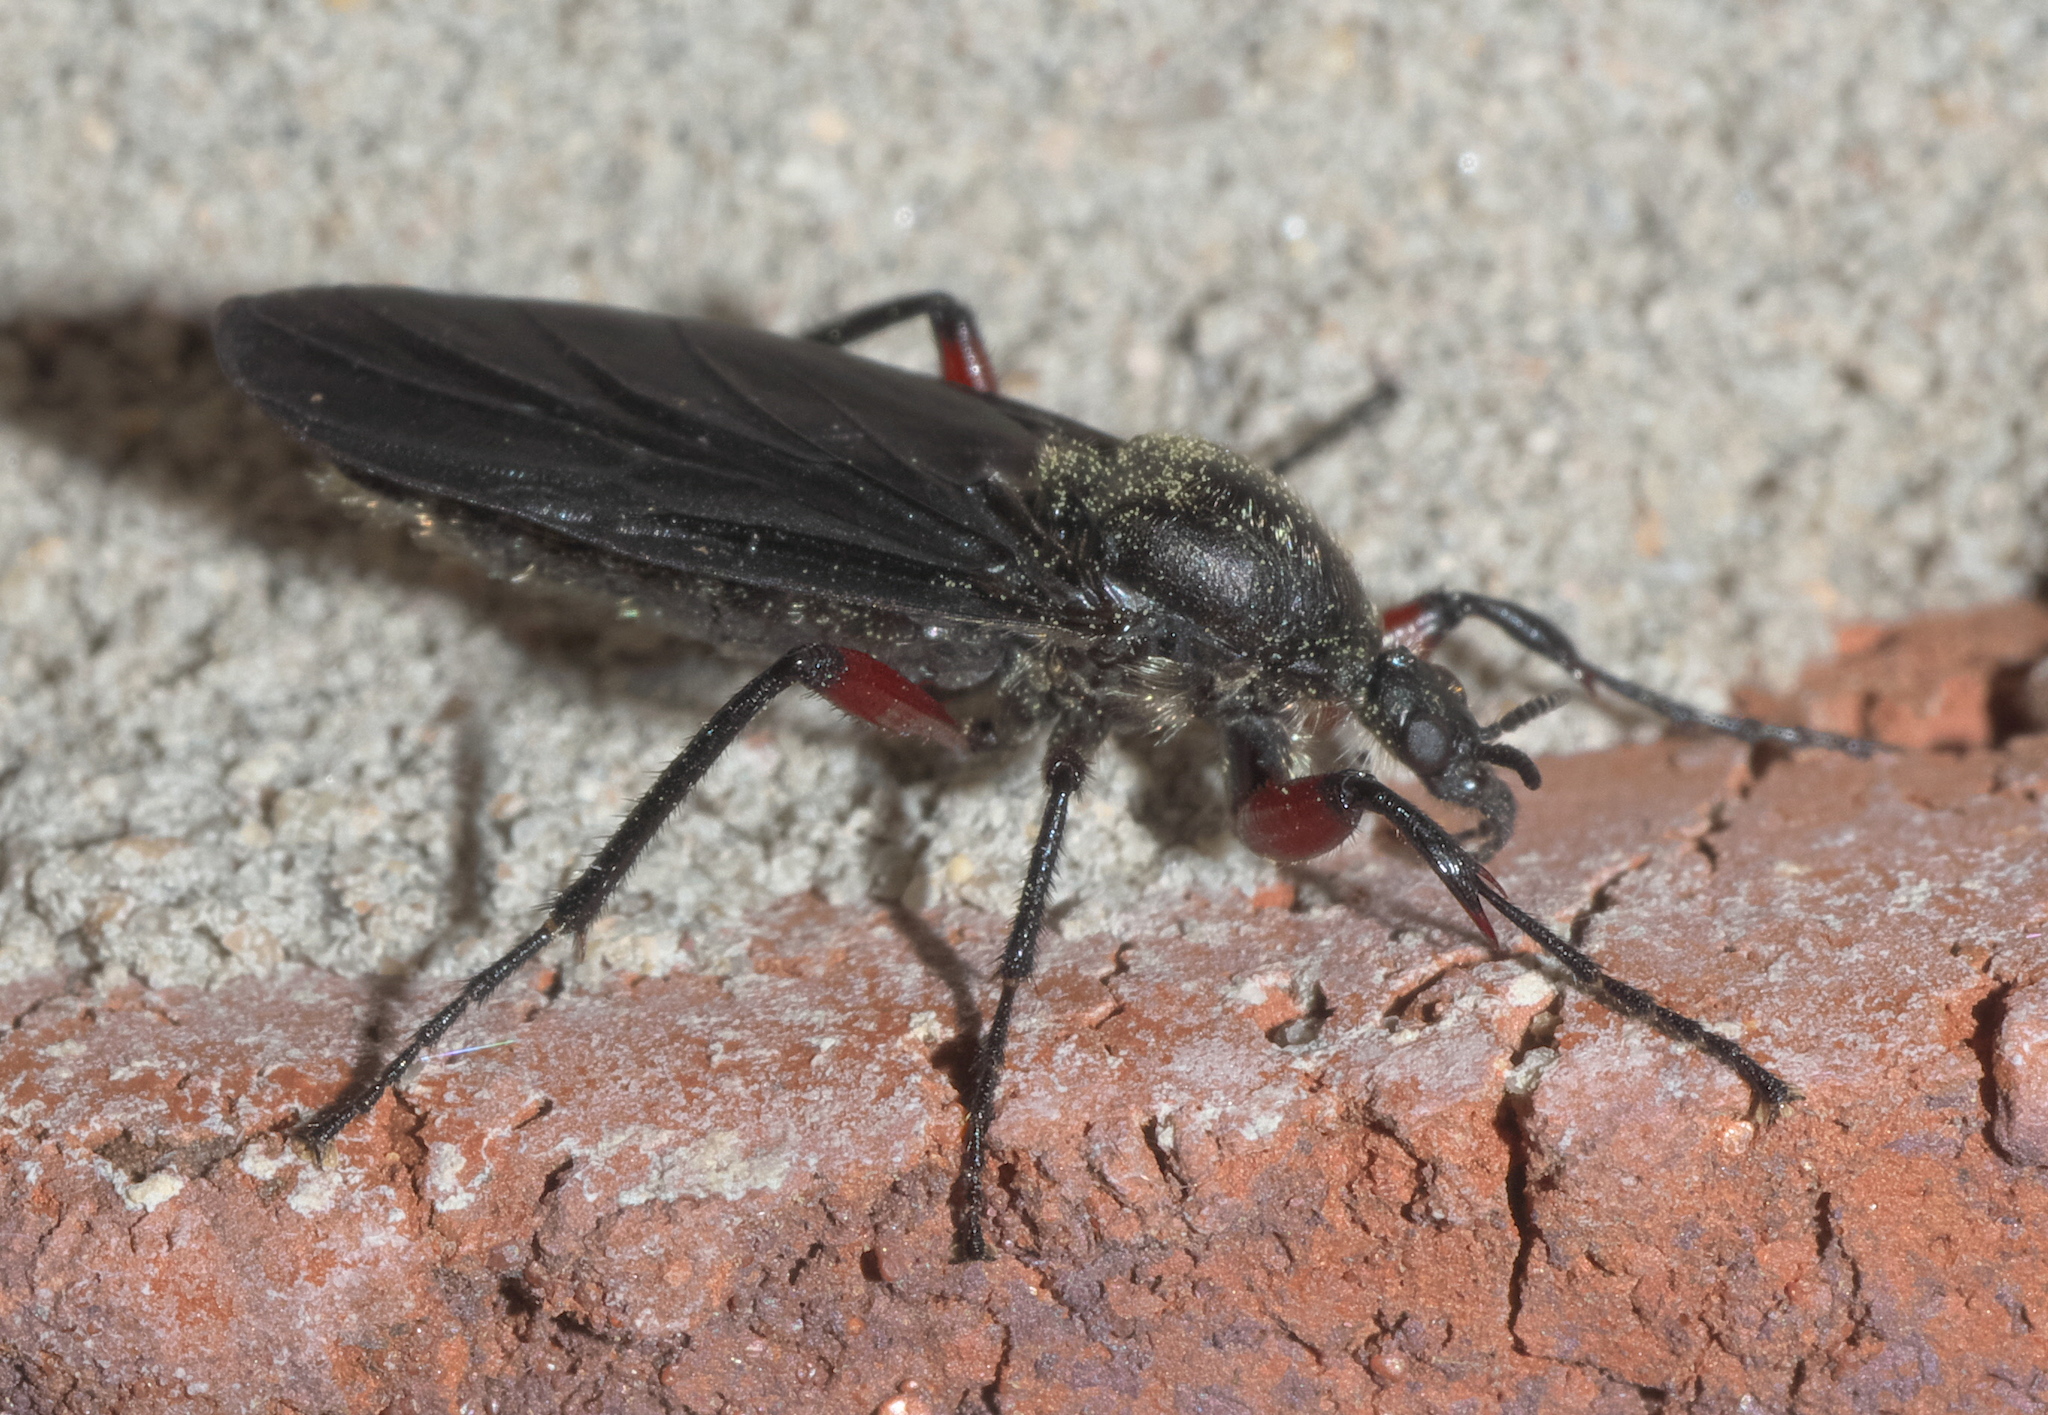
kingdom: Animalia
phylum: Arthropoda
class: Insecta
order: Diptera
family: Bibionidae
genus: Bibio
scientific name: Bibio femoratus
